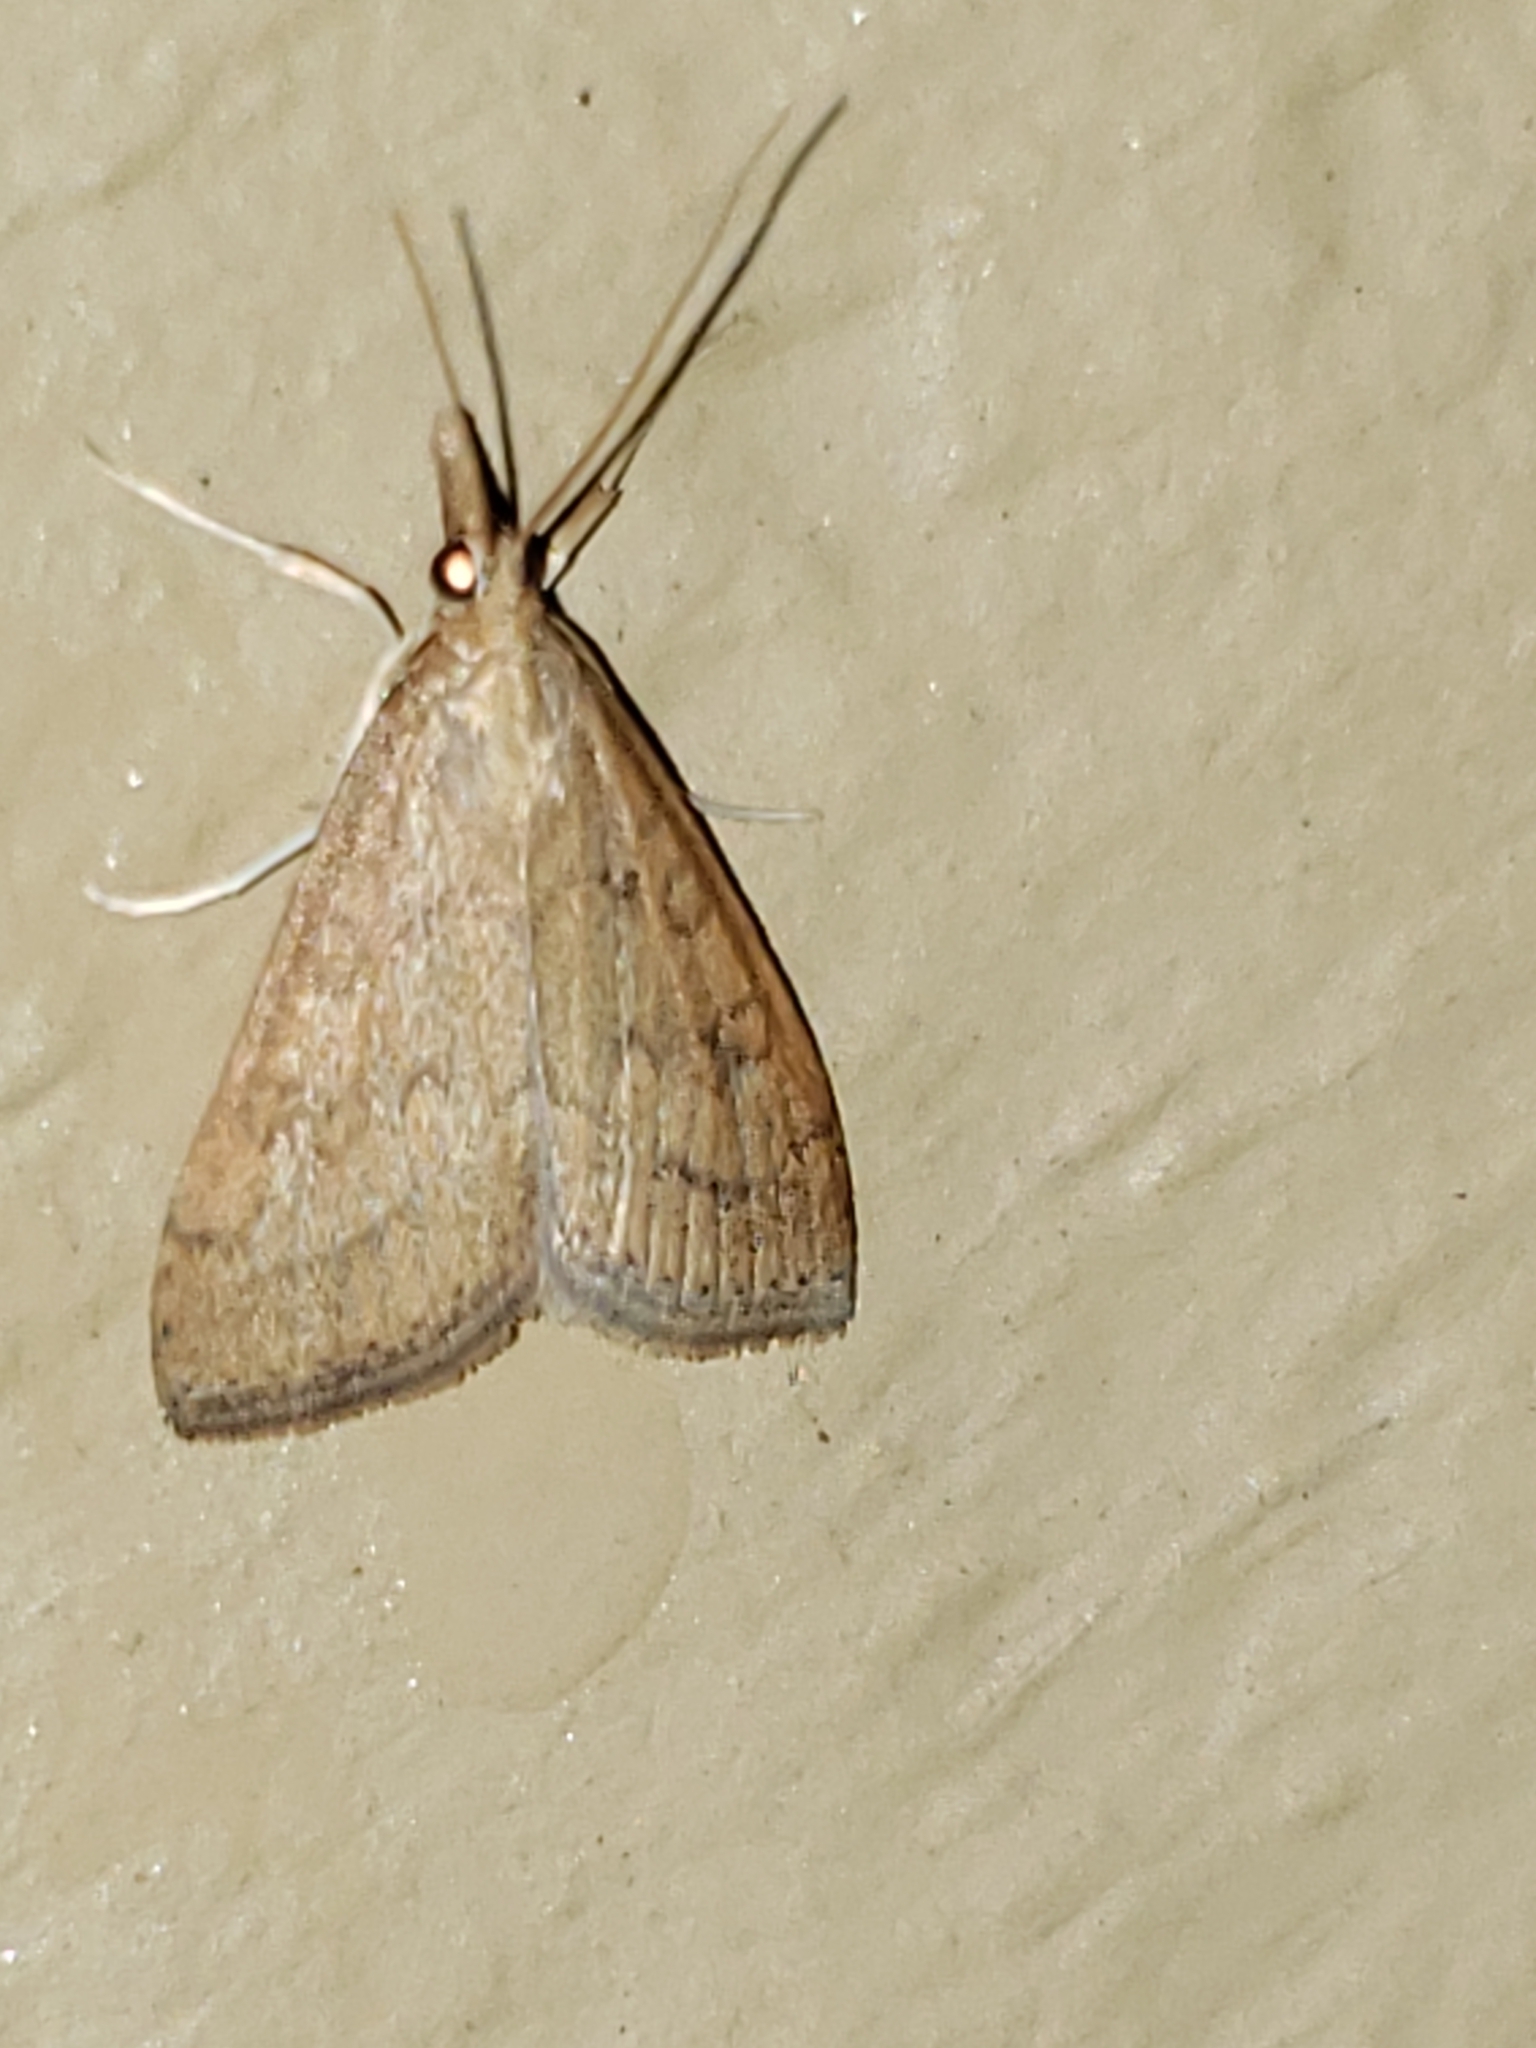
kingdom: Animalia
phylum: Arthropoda
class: Insecta
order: Lepidoptera
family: Crambidae
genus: Udea
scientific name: Udea rubigalis
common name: Celery leaftier moth
